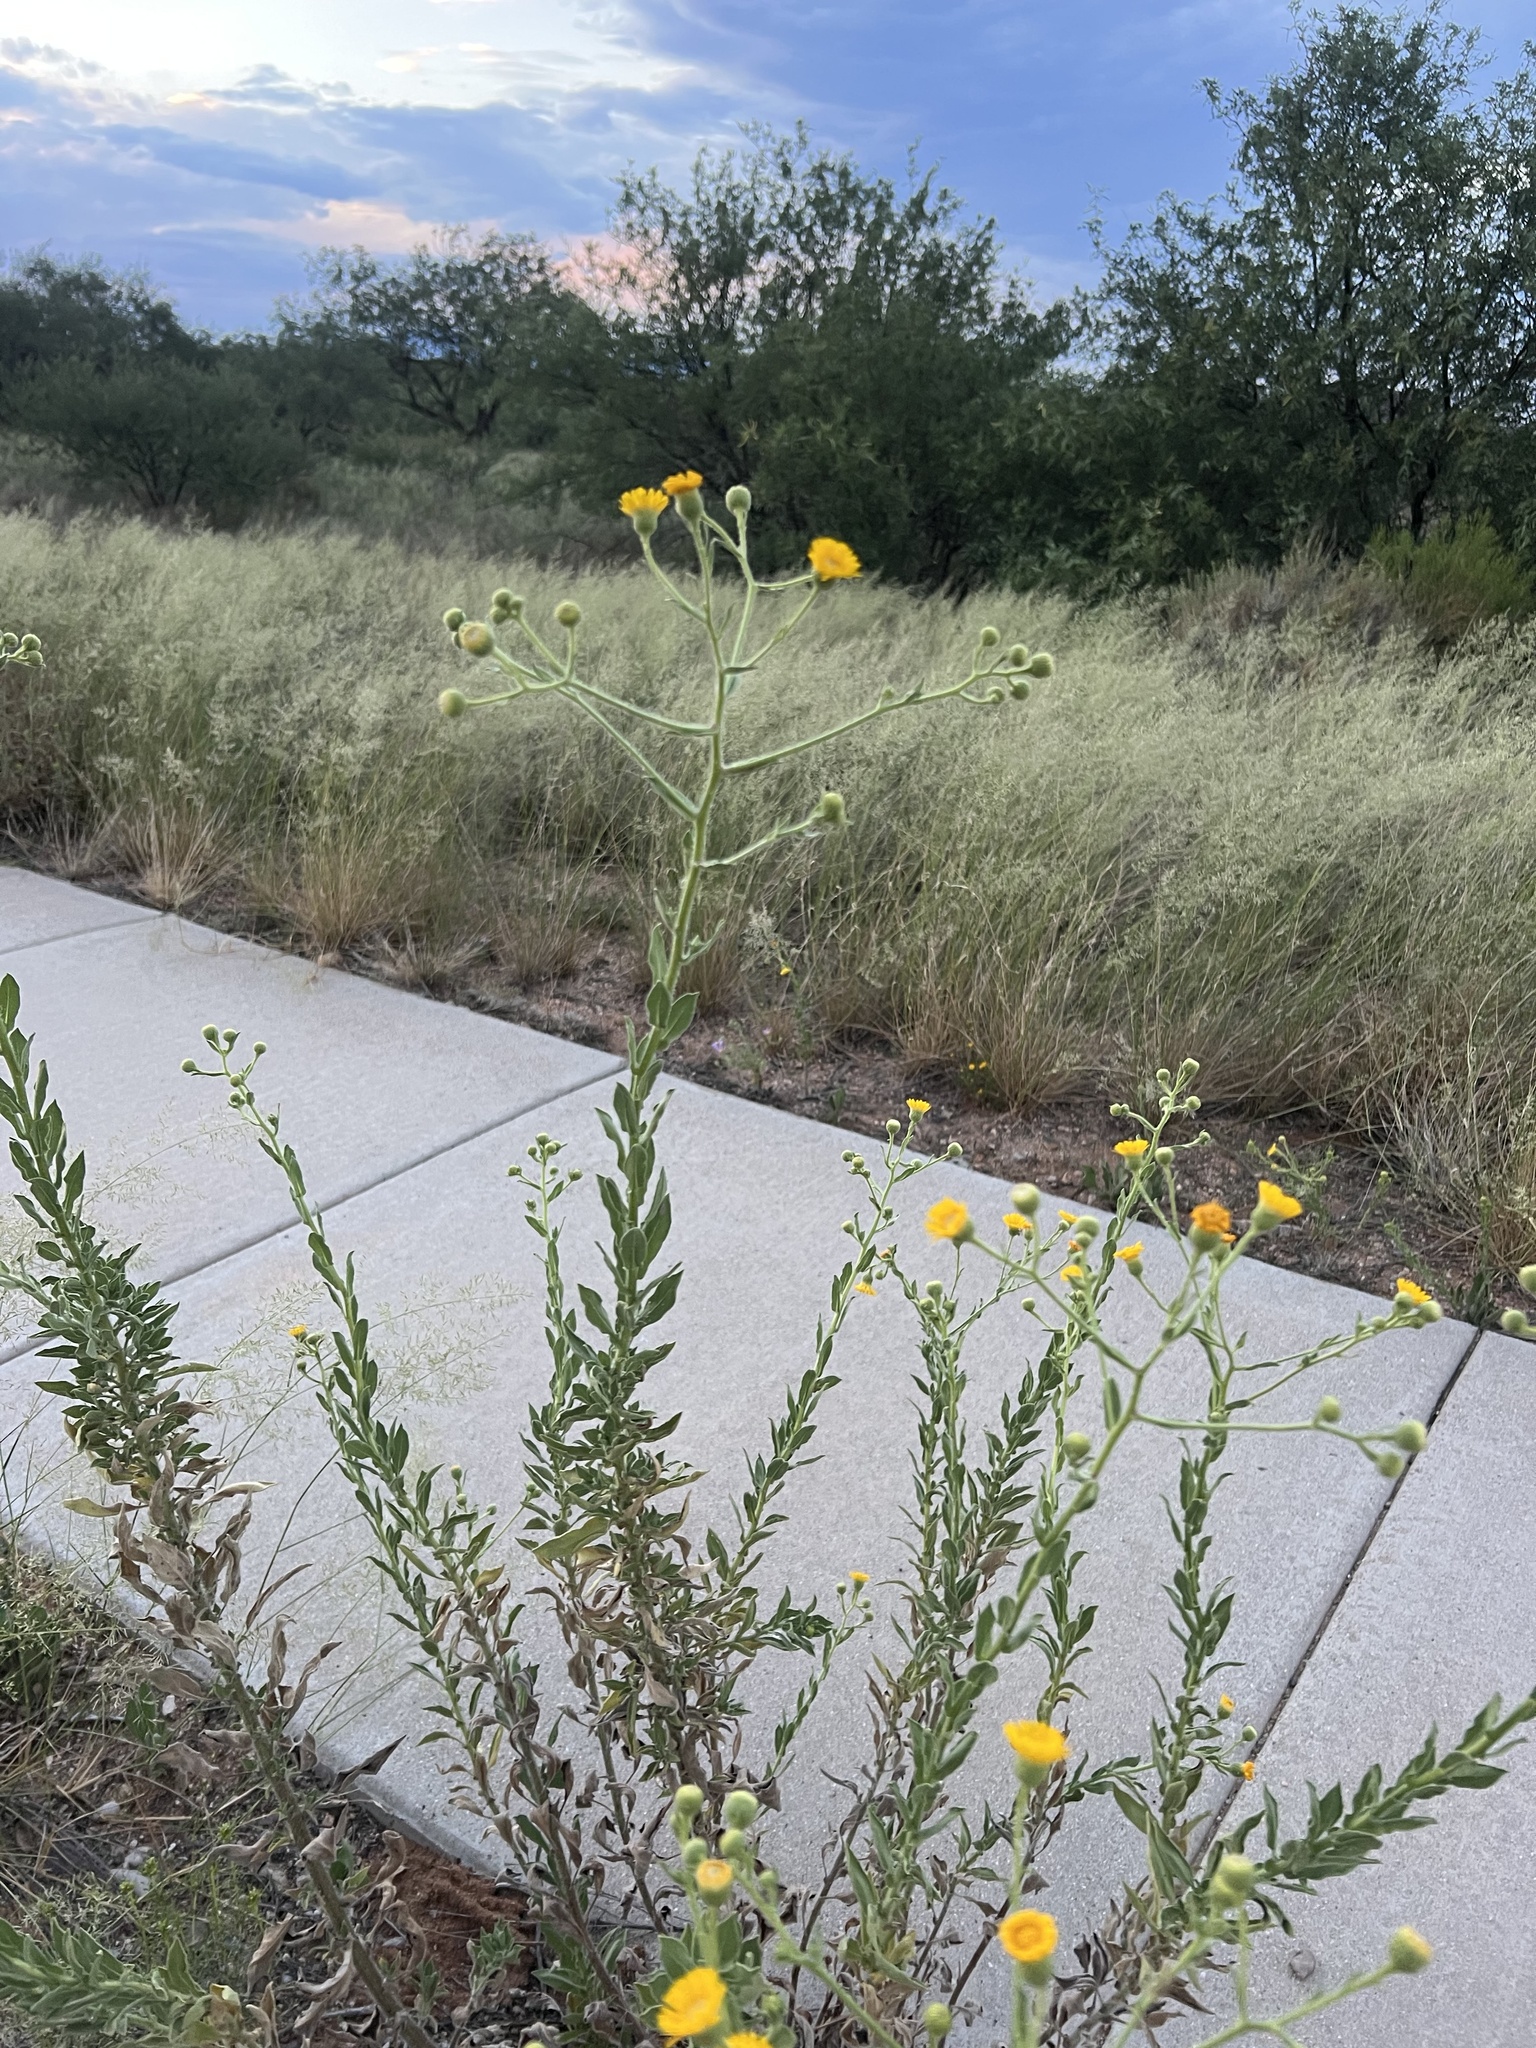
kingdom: Plantae
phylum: Tracheophyta
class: Magnoliopsida
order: Asterales
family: Asteraceae
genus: Heterotheca
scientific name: Heterotheca subaxillaris
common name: Camphorweed
